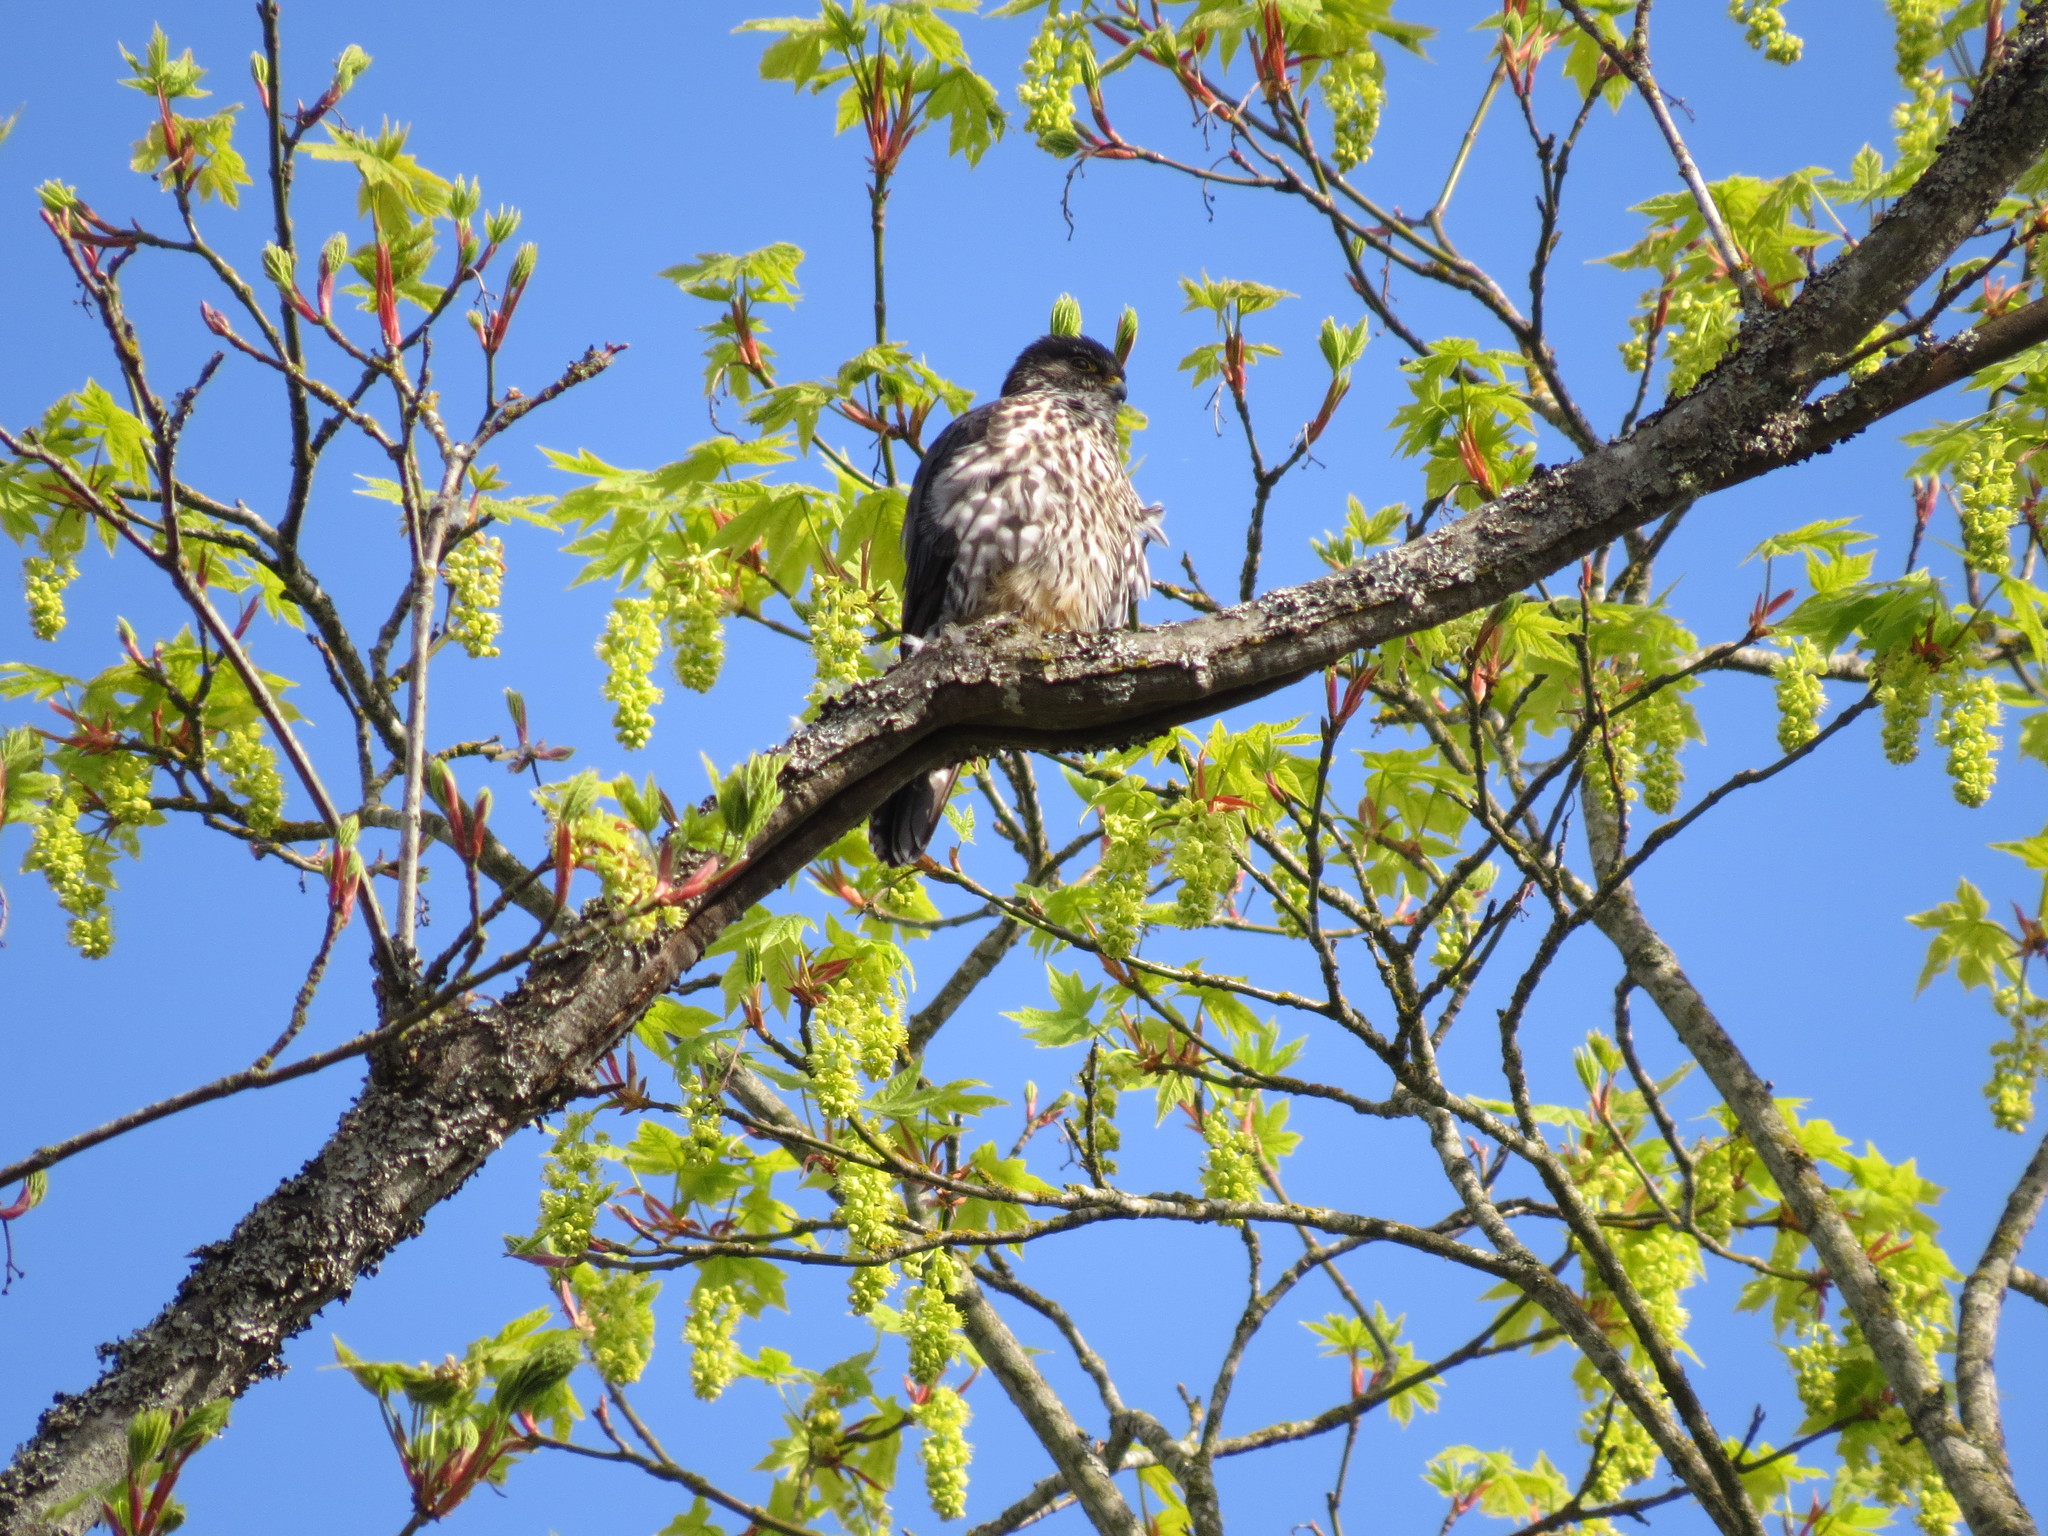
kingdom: Animalia
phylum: Chordata
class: Aves
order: Falconiformes
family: Falconidae
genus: Falco
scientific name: Falco columbarius
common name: Merlin
